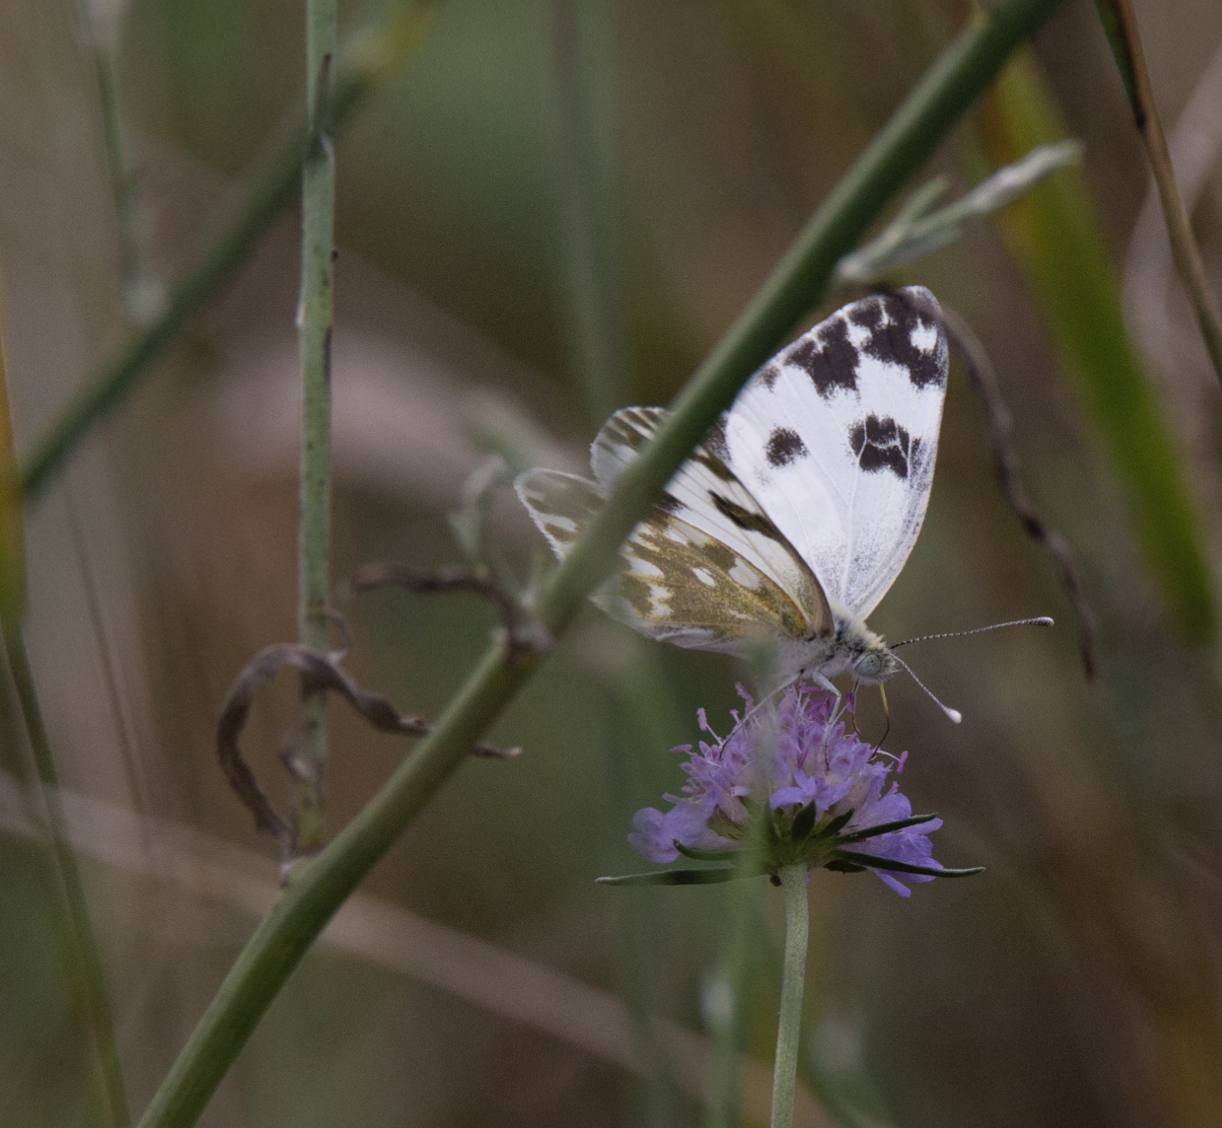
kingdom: Animalia
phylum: Arthropoda
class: Insecta
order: Lepidoptera
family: Pieridae
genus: Pontia
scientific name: Pontia edusa
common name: Eastern bath white
